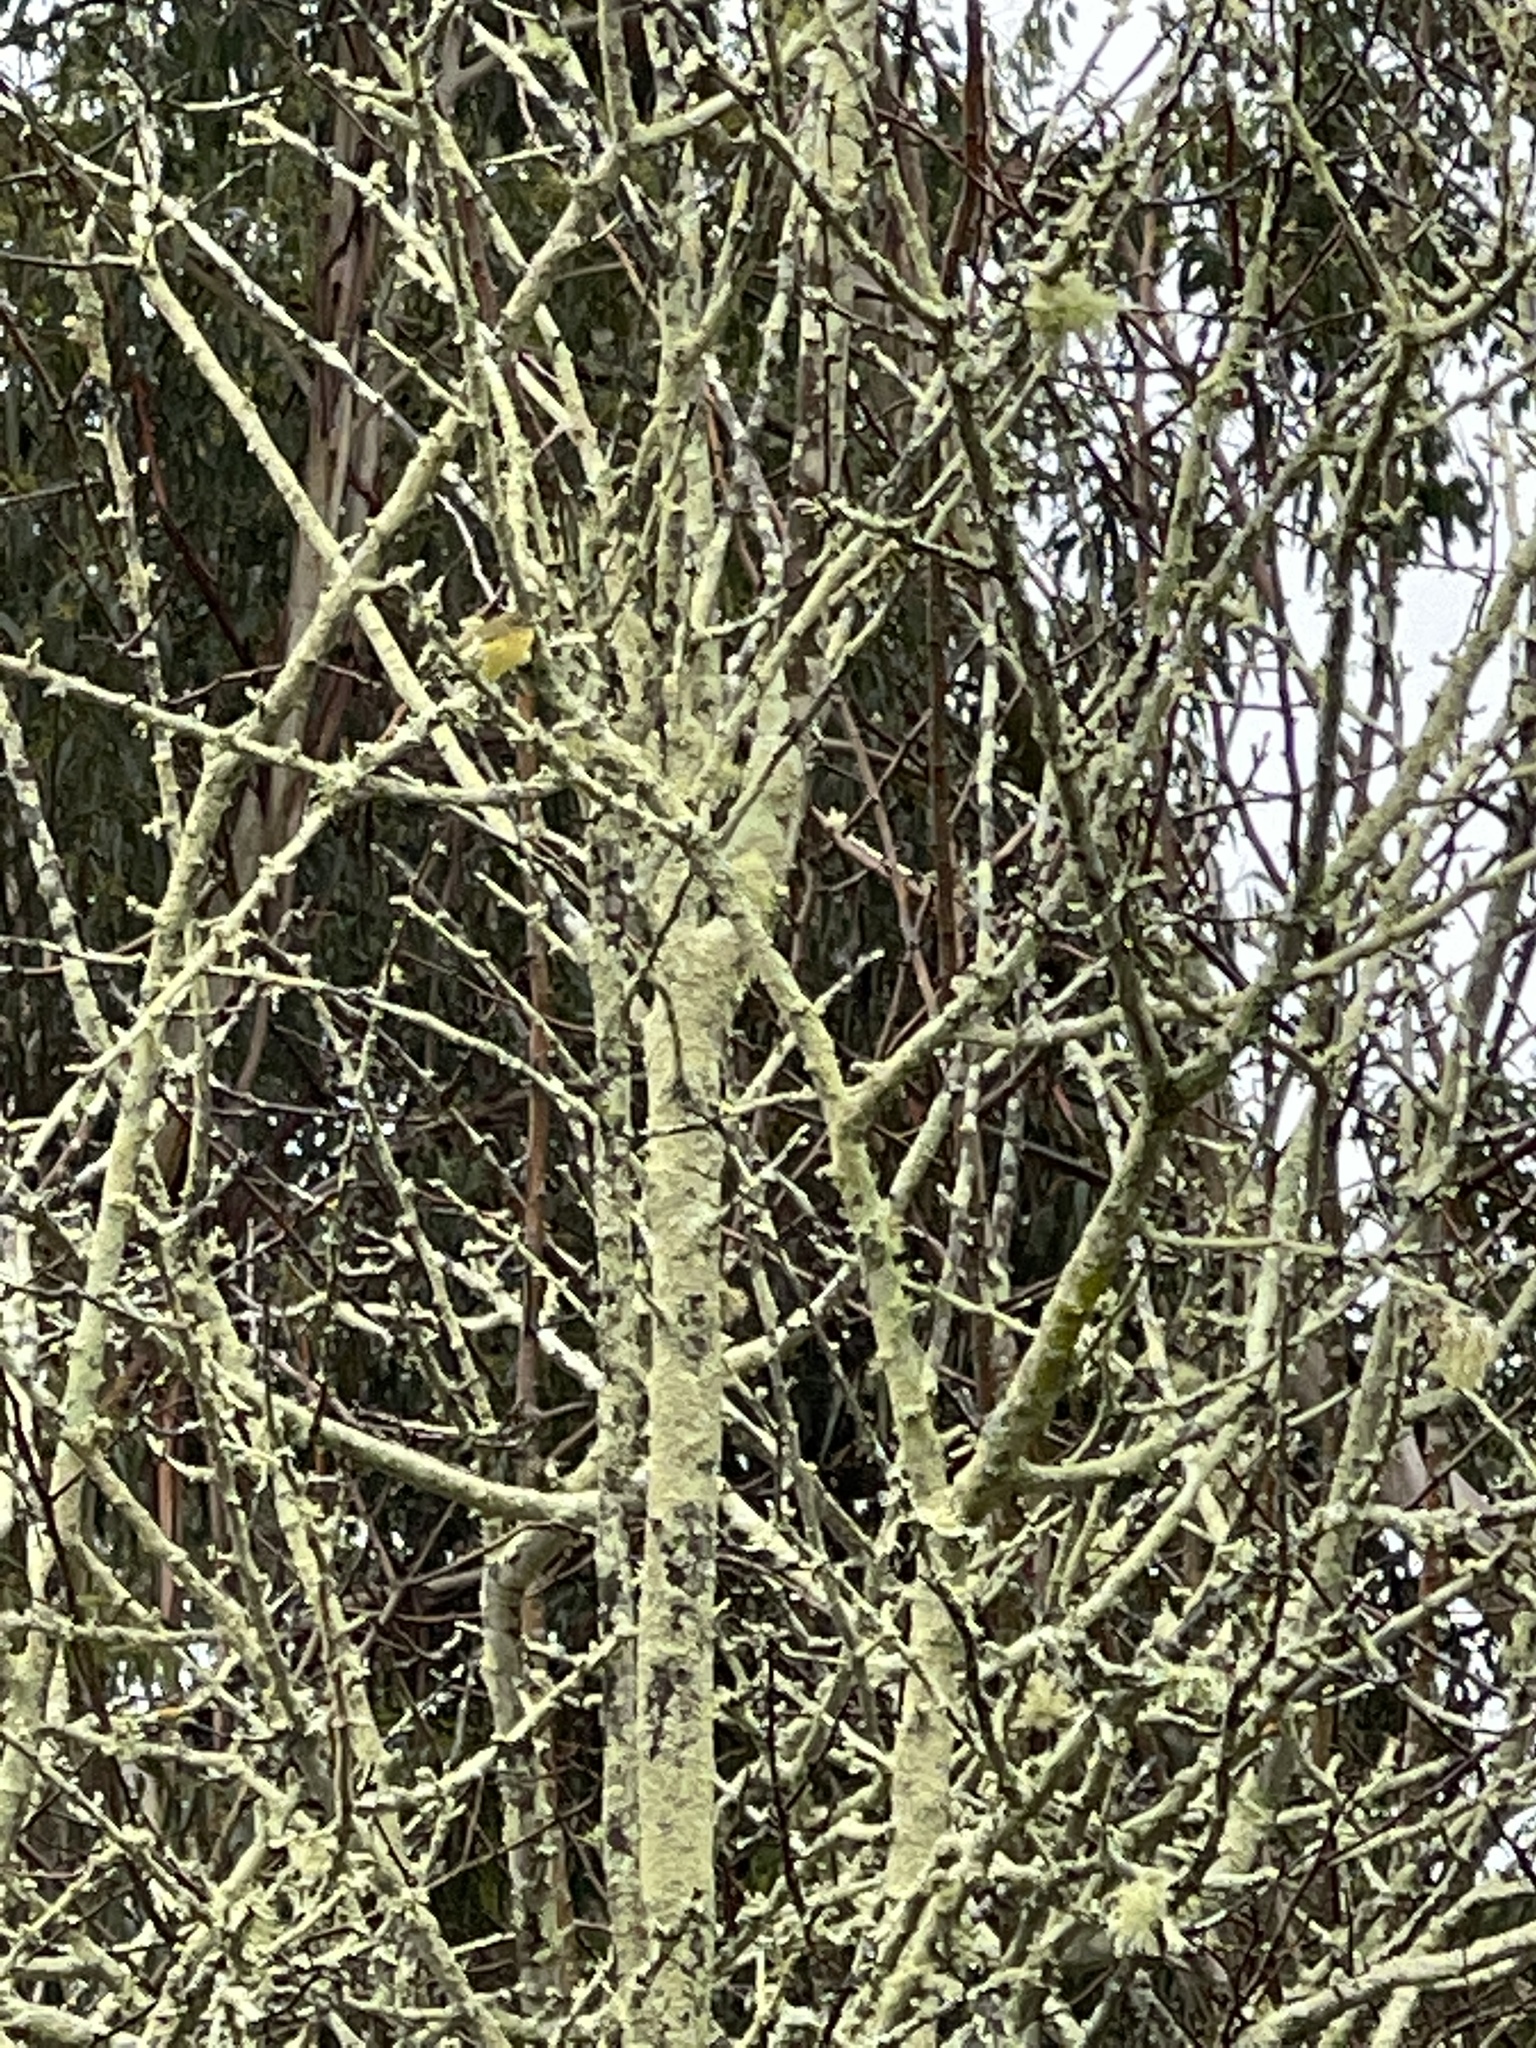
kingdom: Animalia
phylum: Chordata
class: Aves
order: Passeriformes
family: Acanthizidae
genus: Acanthiza
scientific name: Acanthiza nana
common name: Yellow thornbill
